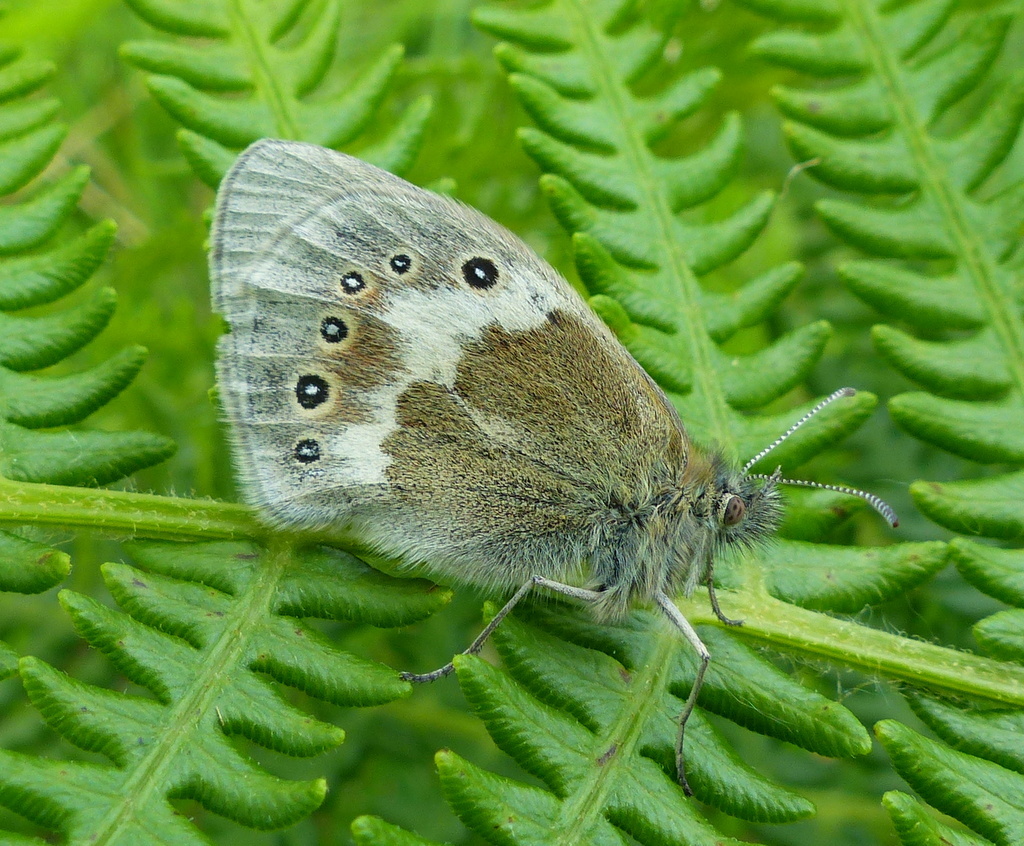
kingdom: Animalia
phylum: Arthropoda
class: Insecta
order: Lepidoptera
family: Nymphalidae
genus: Coenonympha
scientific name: Coenonympha tullia
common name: Large heath
